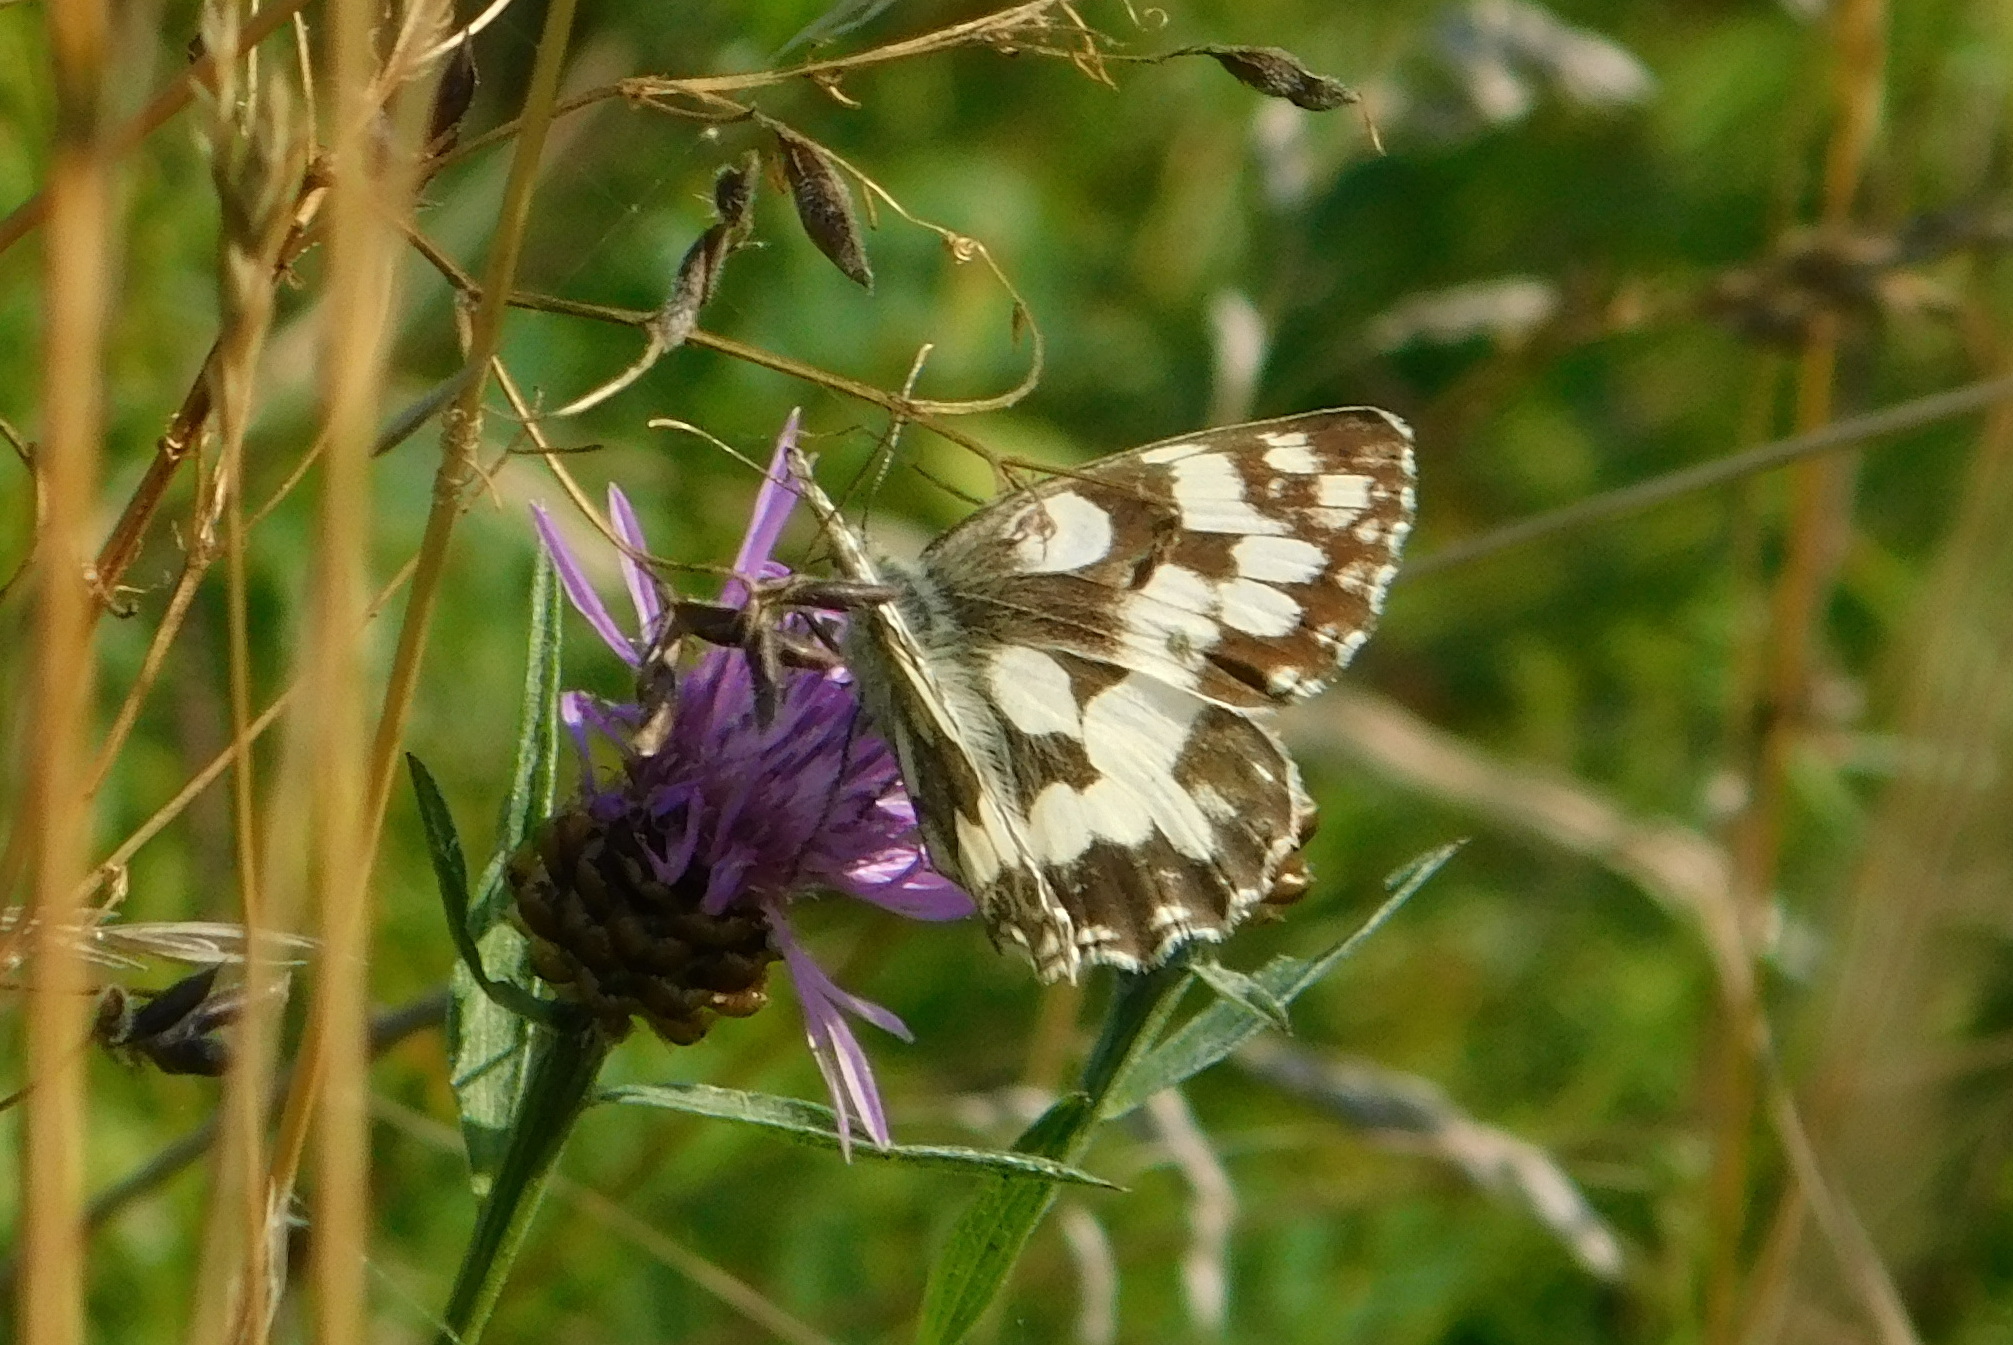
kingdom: Animalia
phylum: Arthropoda
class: Insecta
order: Lepidoptera
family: Nymphalidae
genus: Melanargia
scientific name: Melanargia galathea
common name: Marbled white
